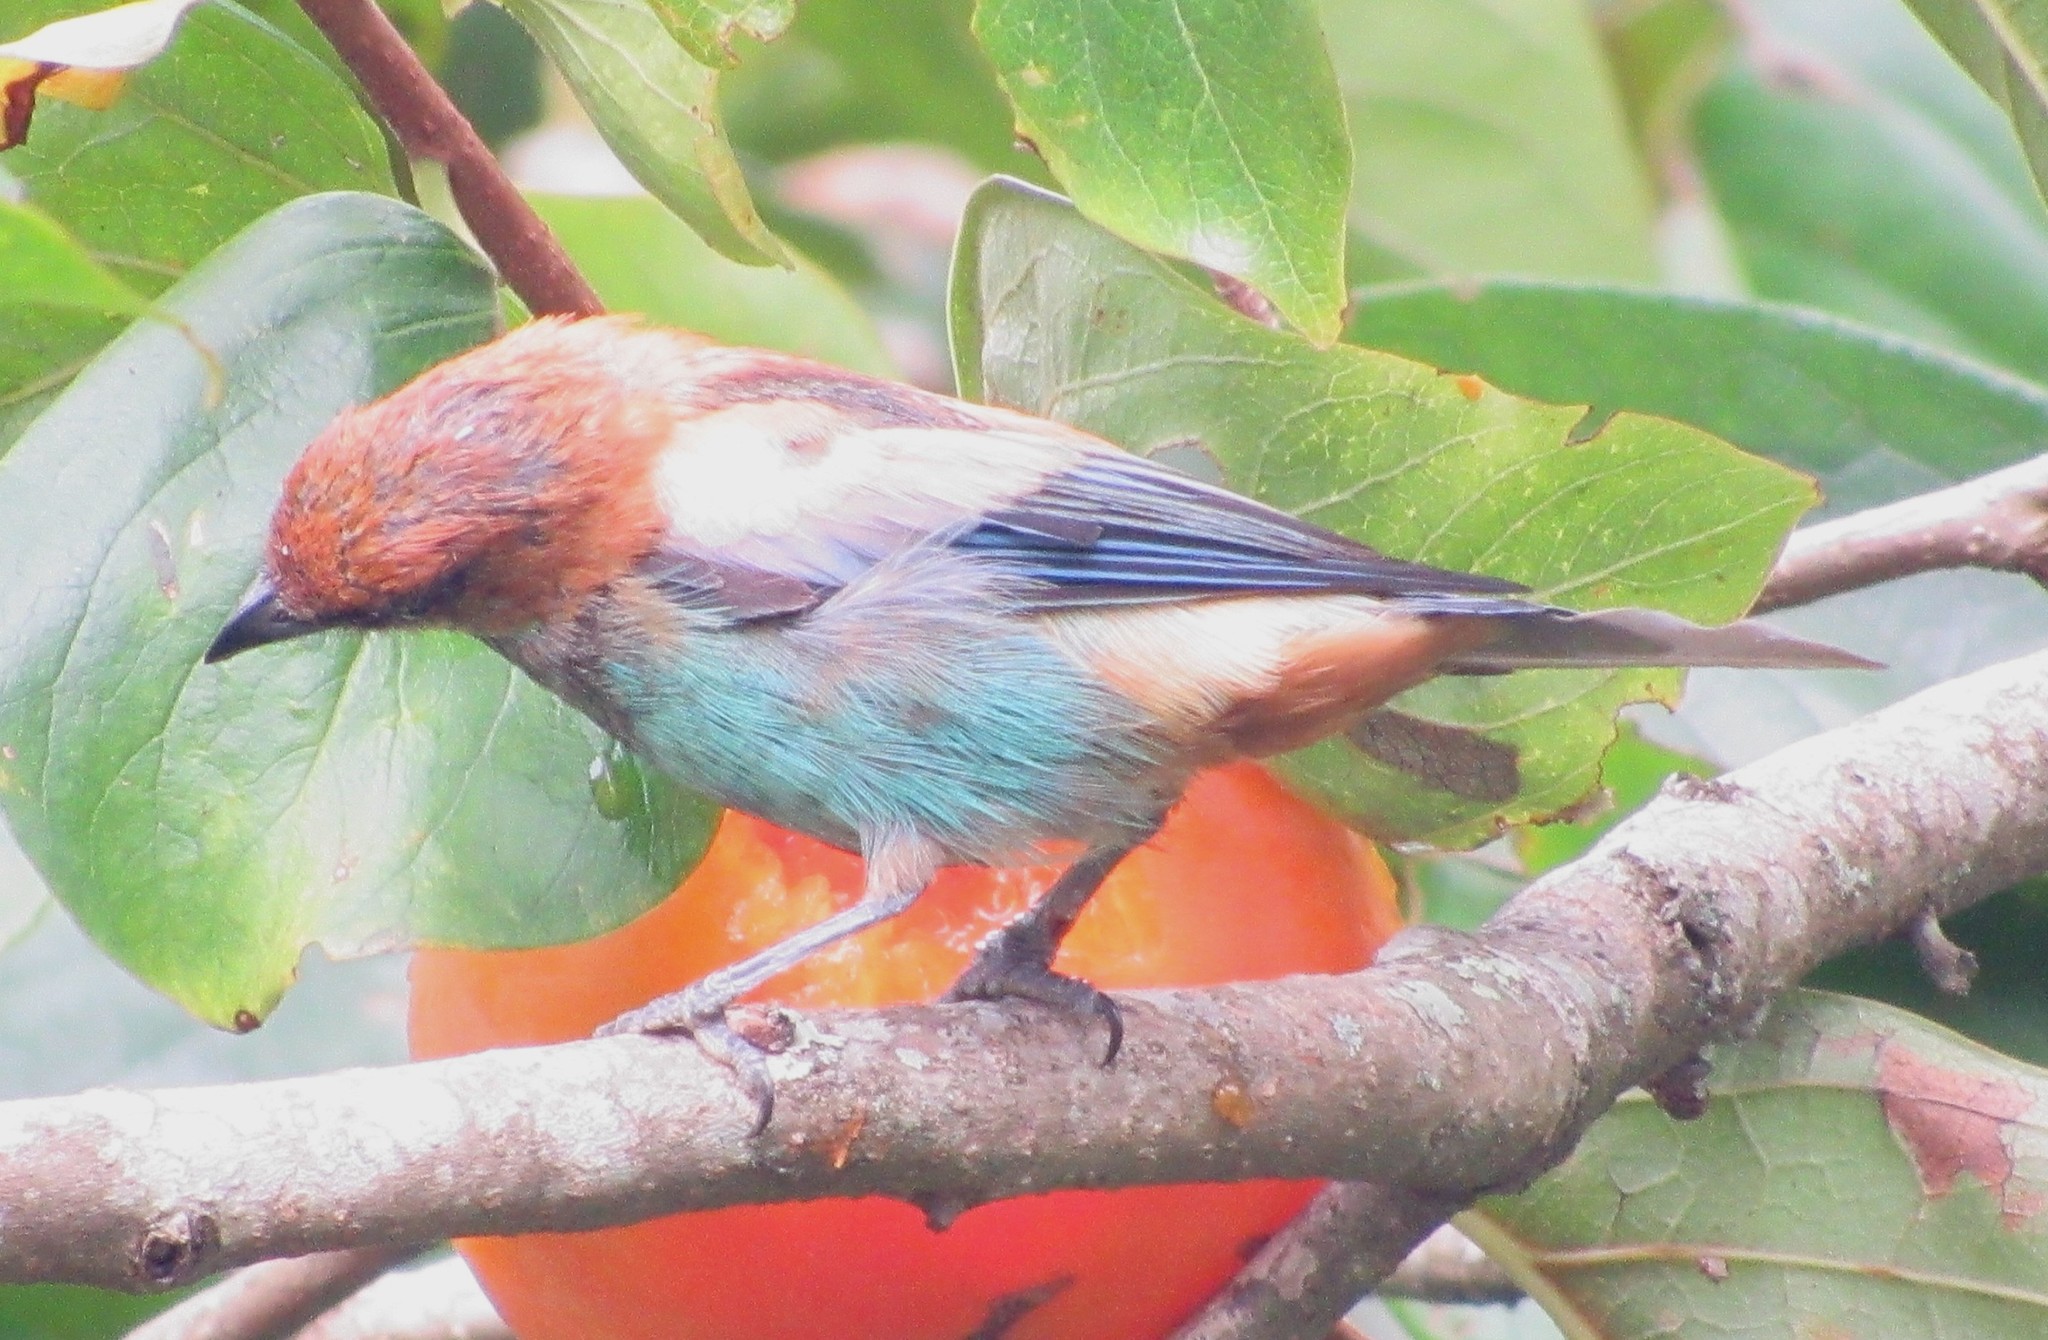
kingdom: Animalia
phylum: Chordata
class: Aves
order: Passeriformes
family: Thraupidae
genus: Stilpnia
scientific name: Stilpnia preciosa
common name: Chestnut-backed tanager
